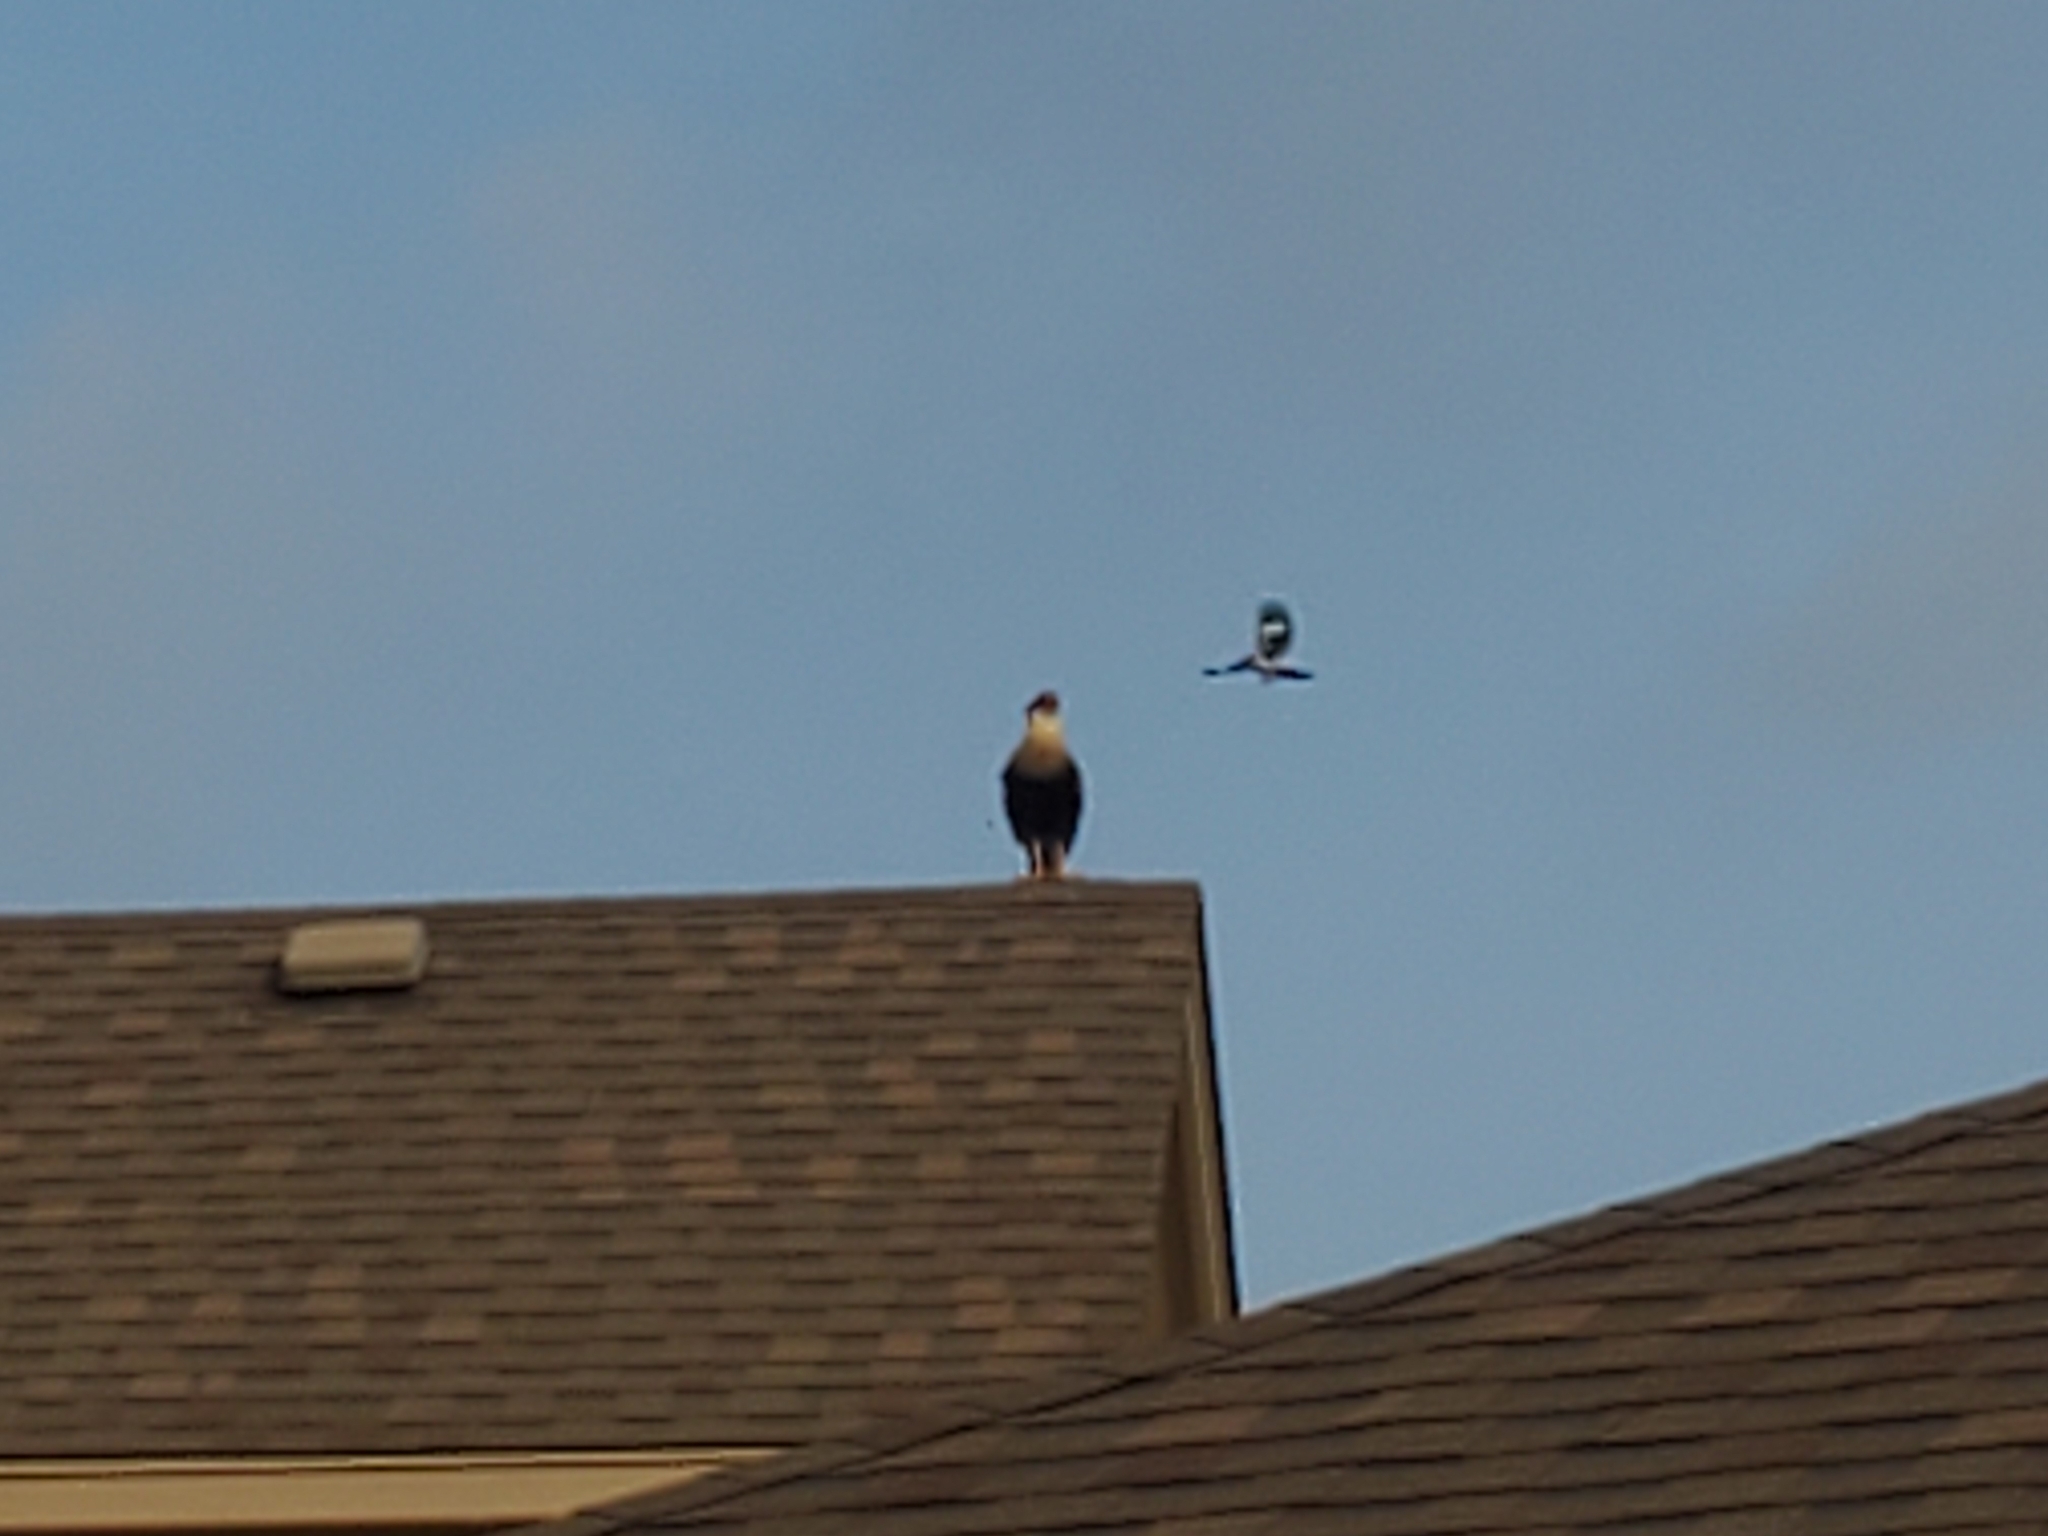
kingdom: Animalia
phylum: Chordata
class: Aves
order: Falconiformes
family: Falconidae
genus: Caracara
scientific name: Caracara plancus
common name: Southern caracara
